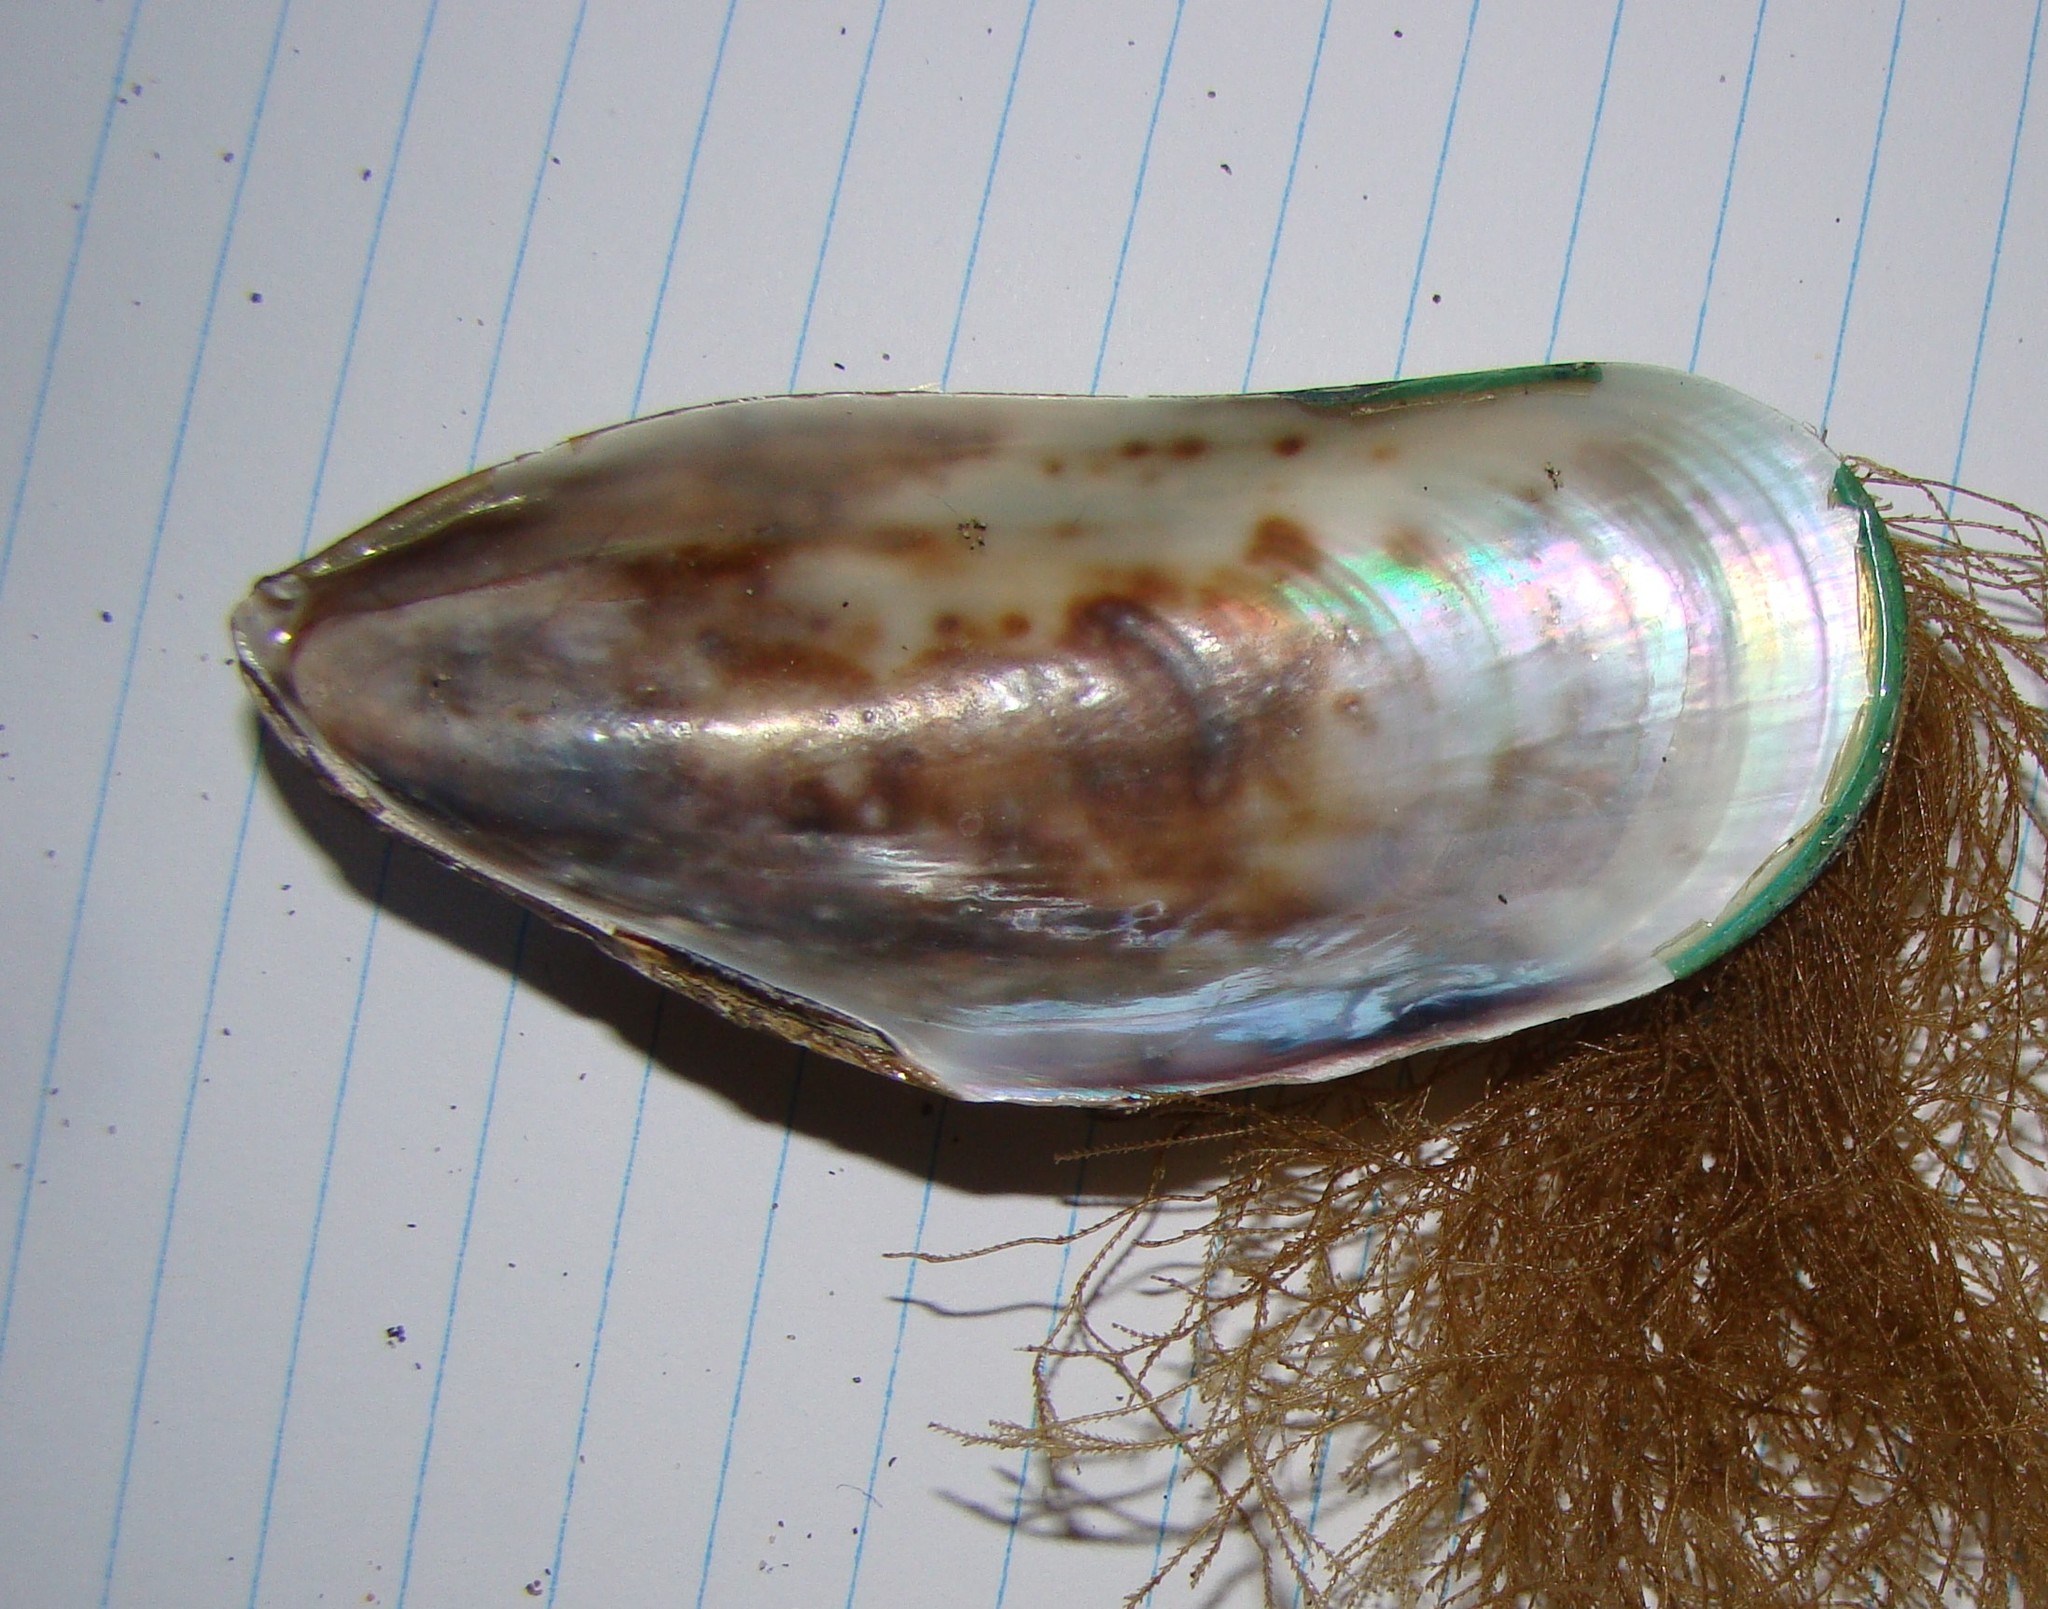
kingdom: Animalia
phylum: Mollusca
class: Bivalvia
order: Mytilida
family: Mytilidae
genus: Perna
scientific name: Perna canaliculus
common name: New zealand greenshelltm
